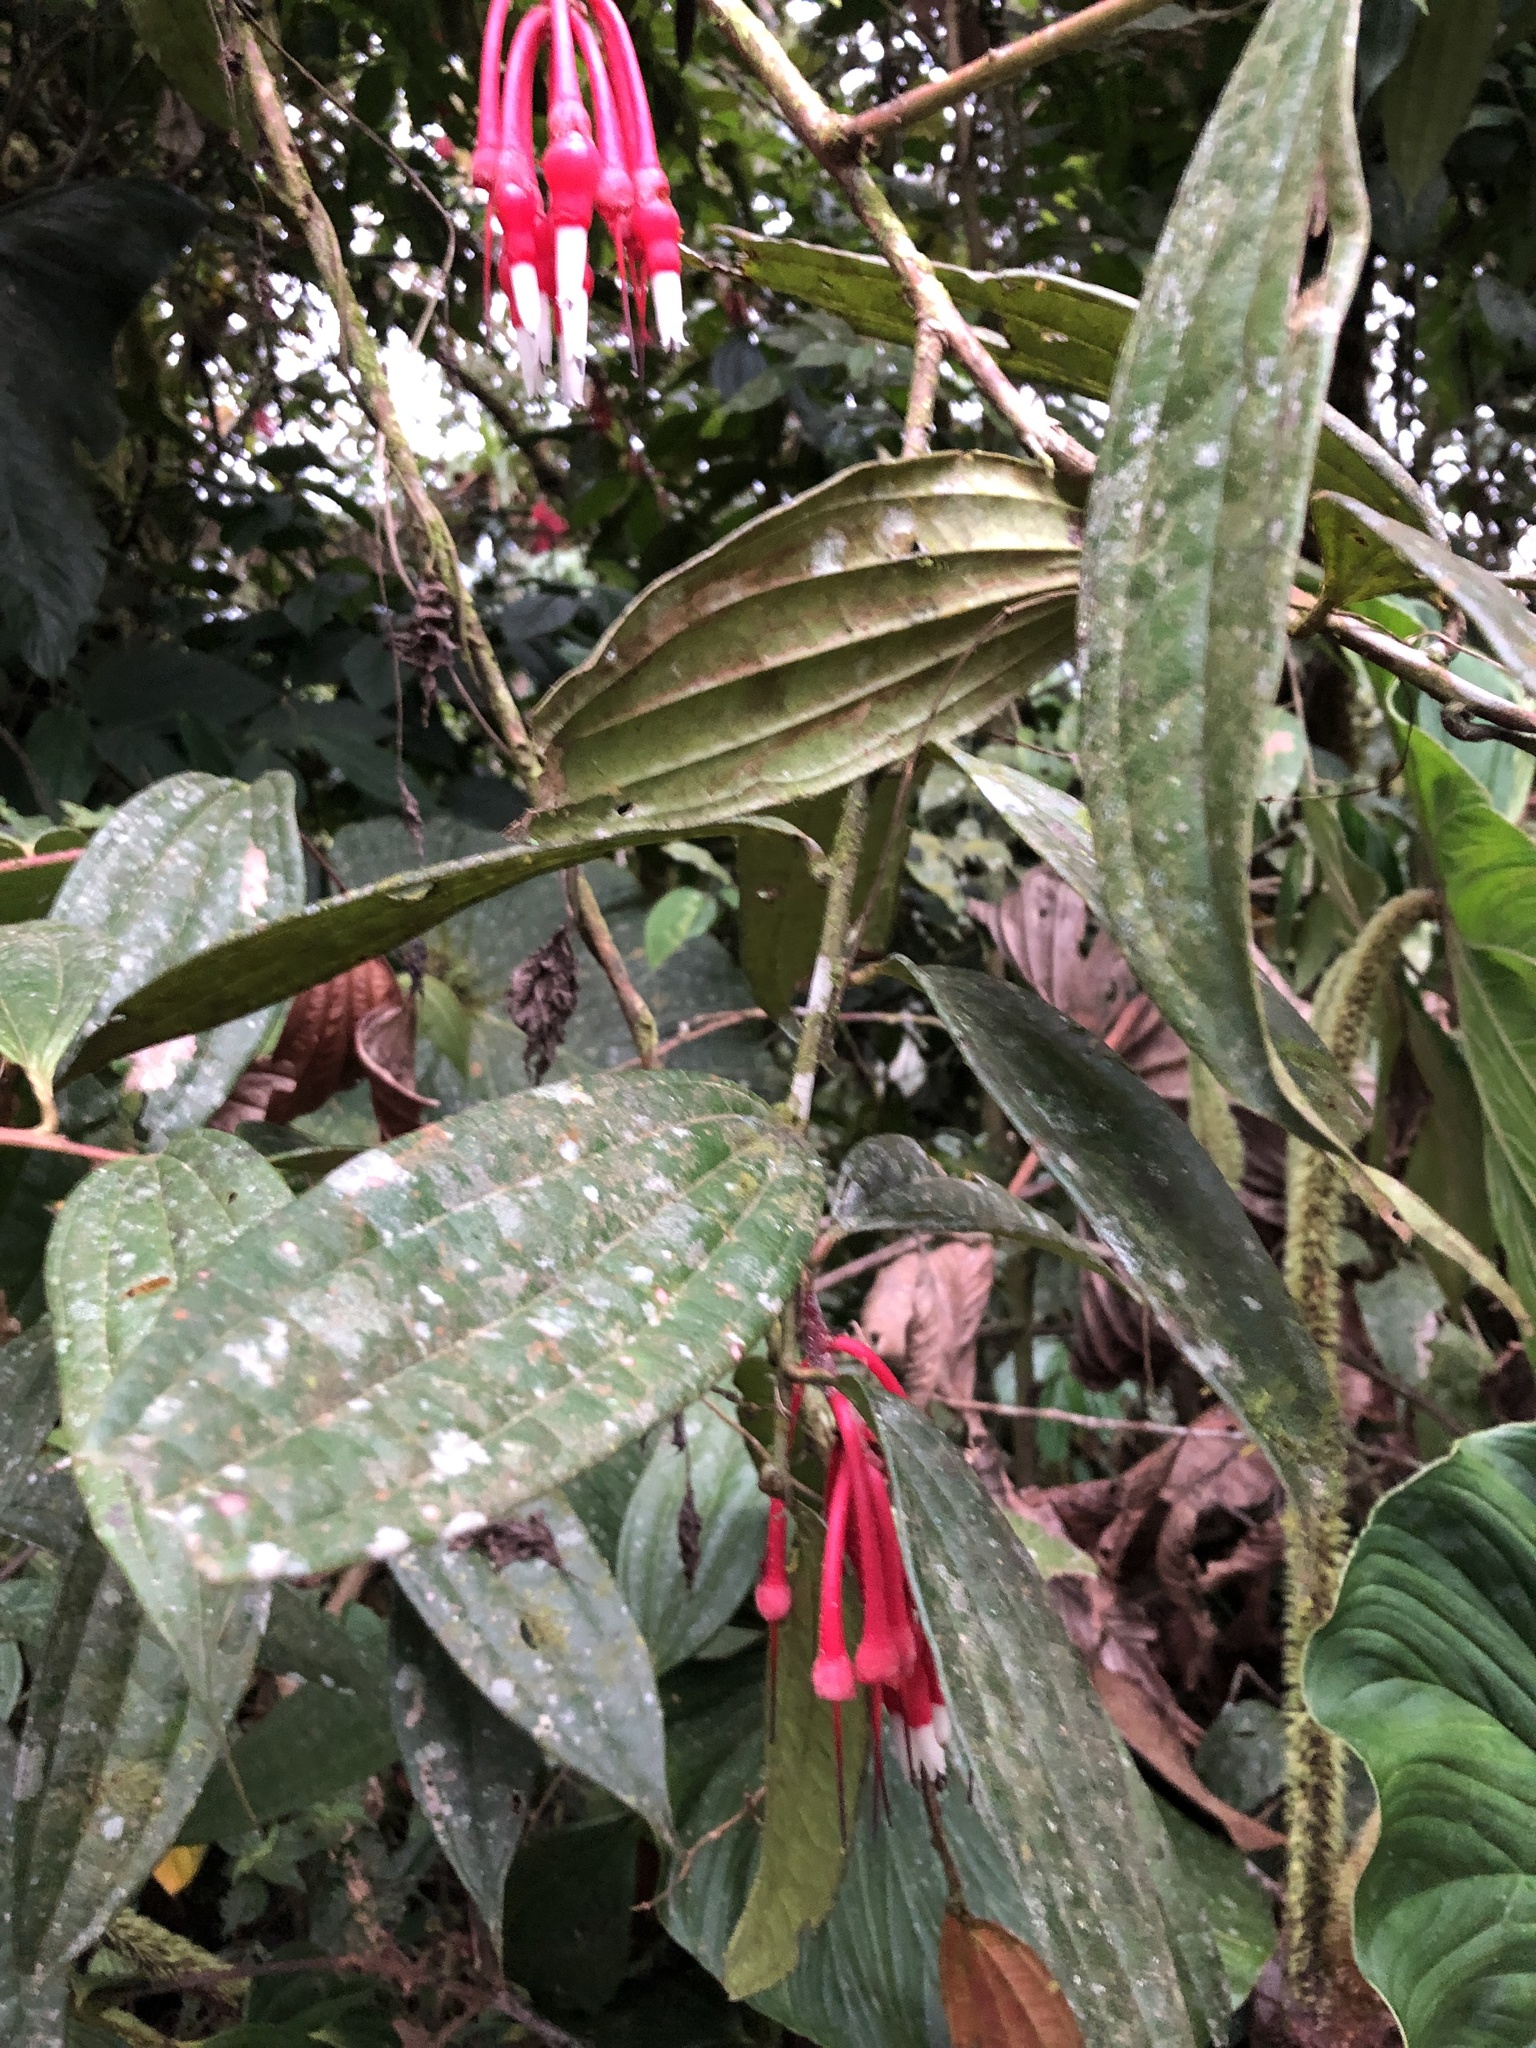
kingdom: Plantae
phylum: Tracheophyta
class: Magnoliopsida
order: Ericales
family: Ericaceae
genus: Psammisia
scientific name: Psammisia aberrans
